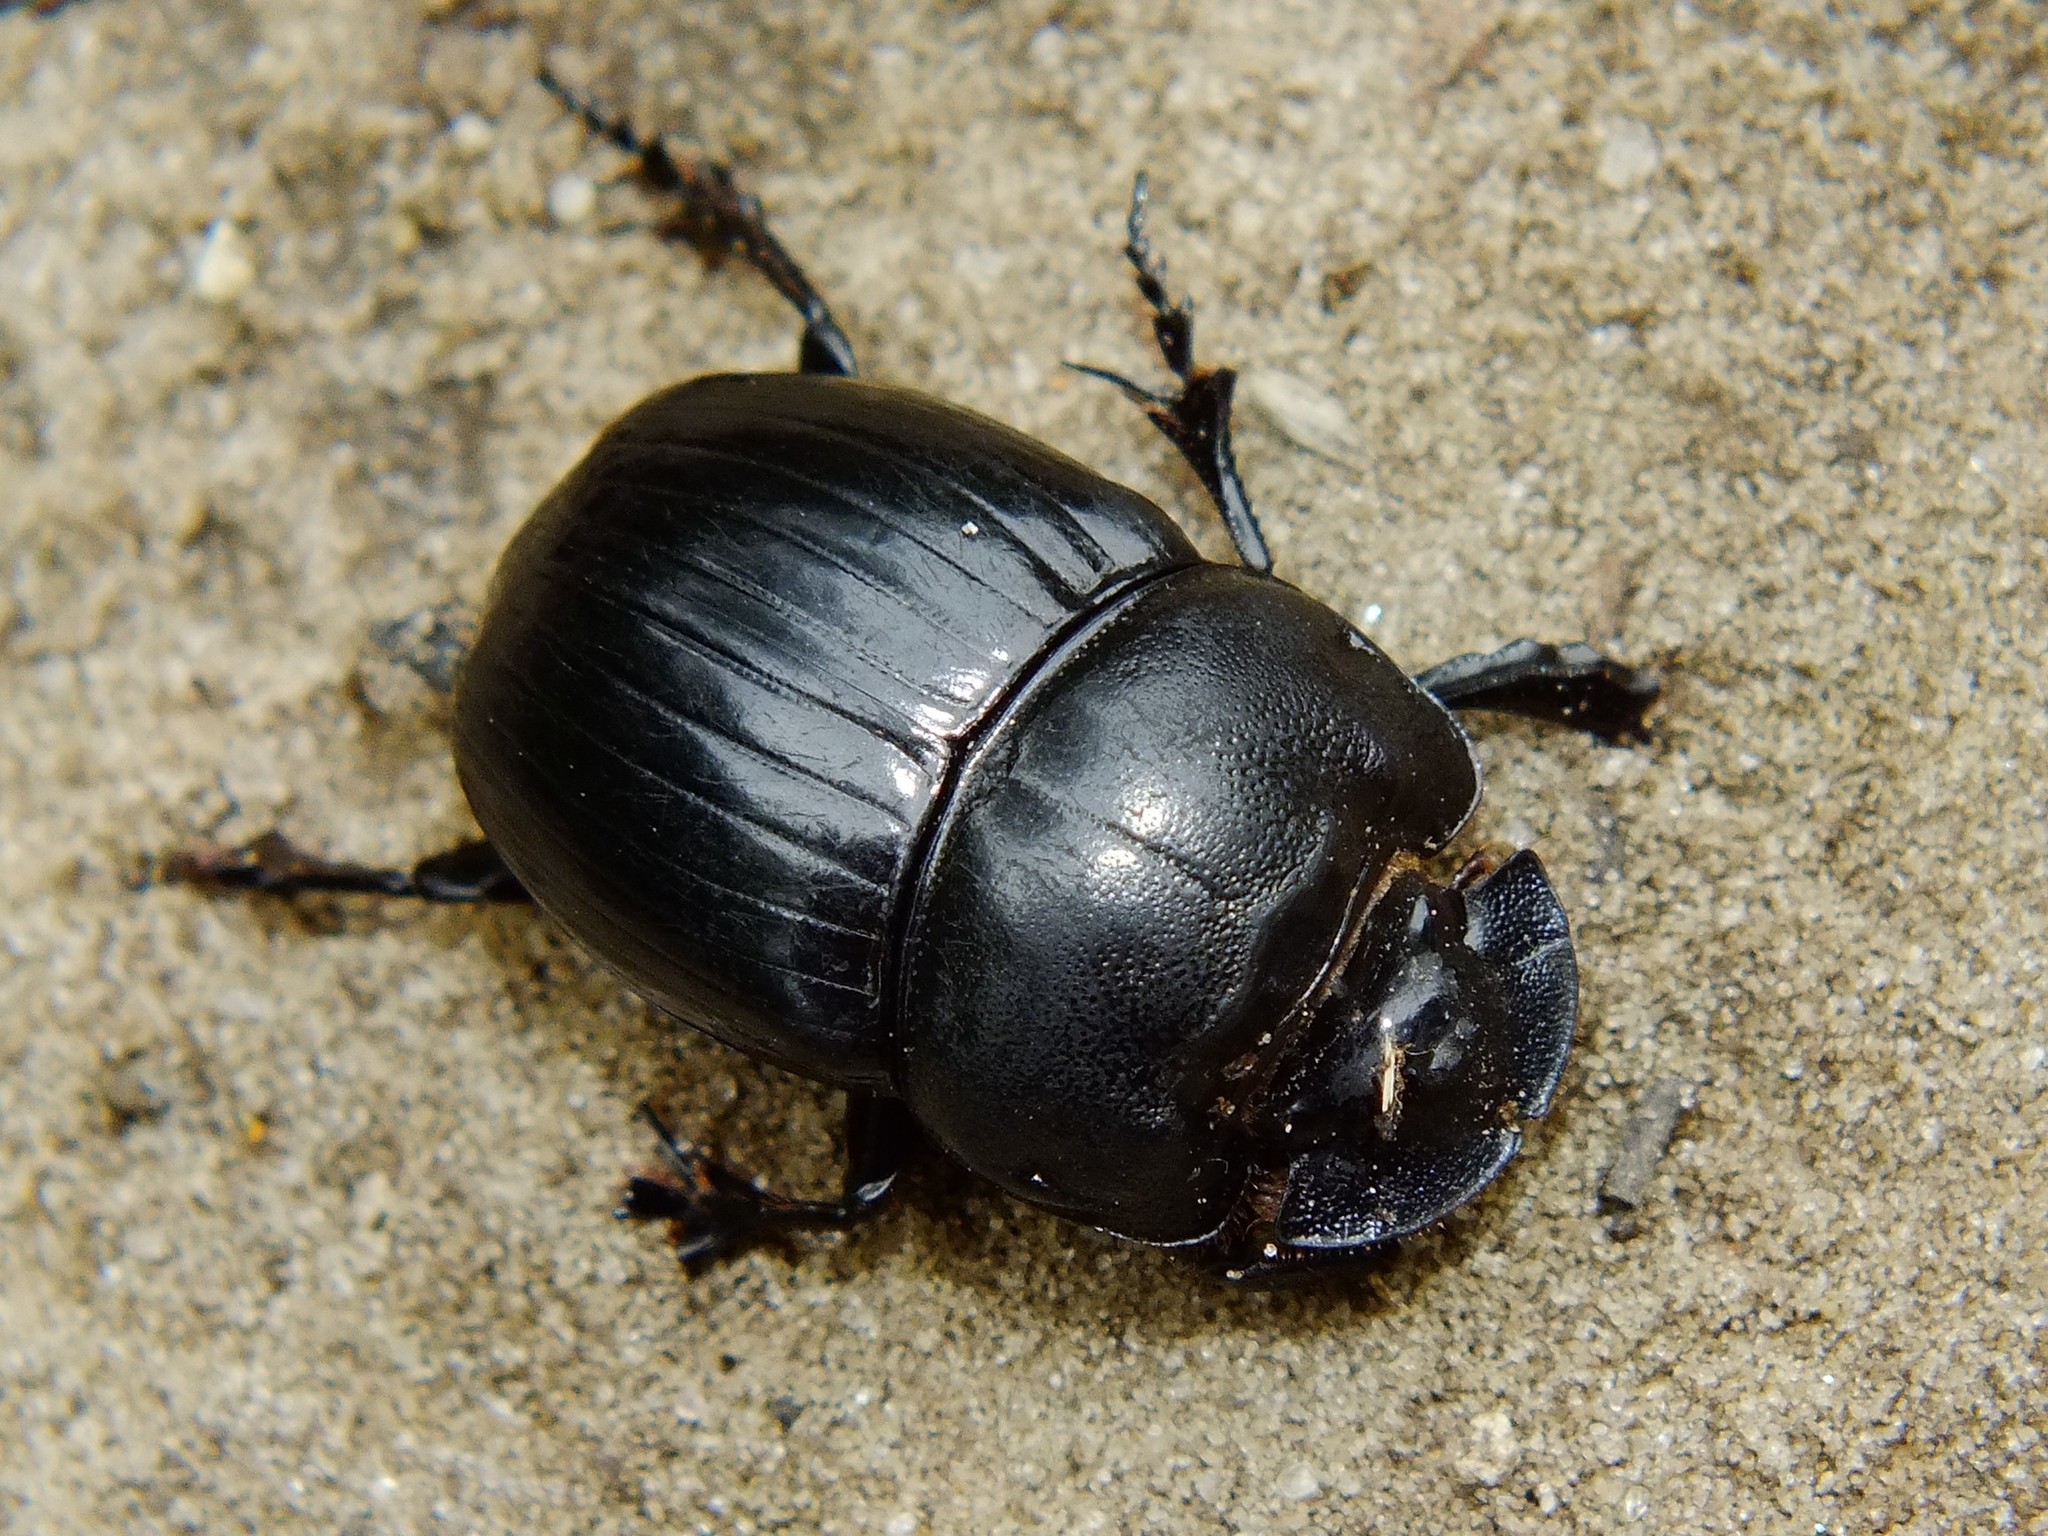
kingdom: Animalia
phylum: Arthropoda
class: Insecta
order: Coleoptera
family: Scarabaeidae
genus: Copris
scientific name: Copris lunaris
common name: Horned dung beetle
